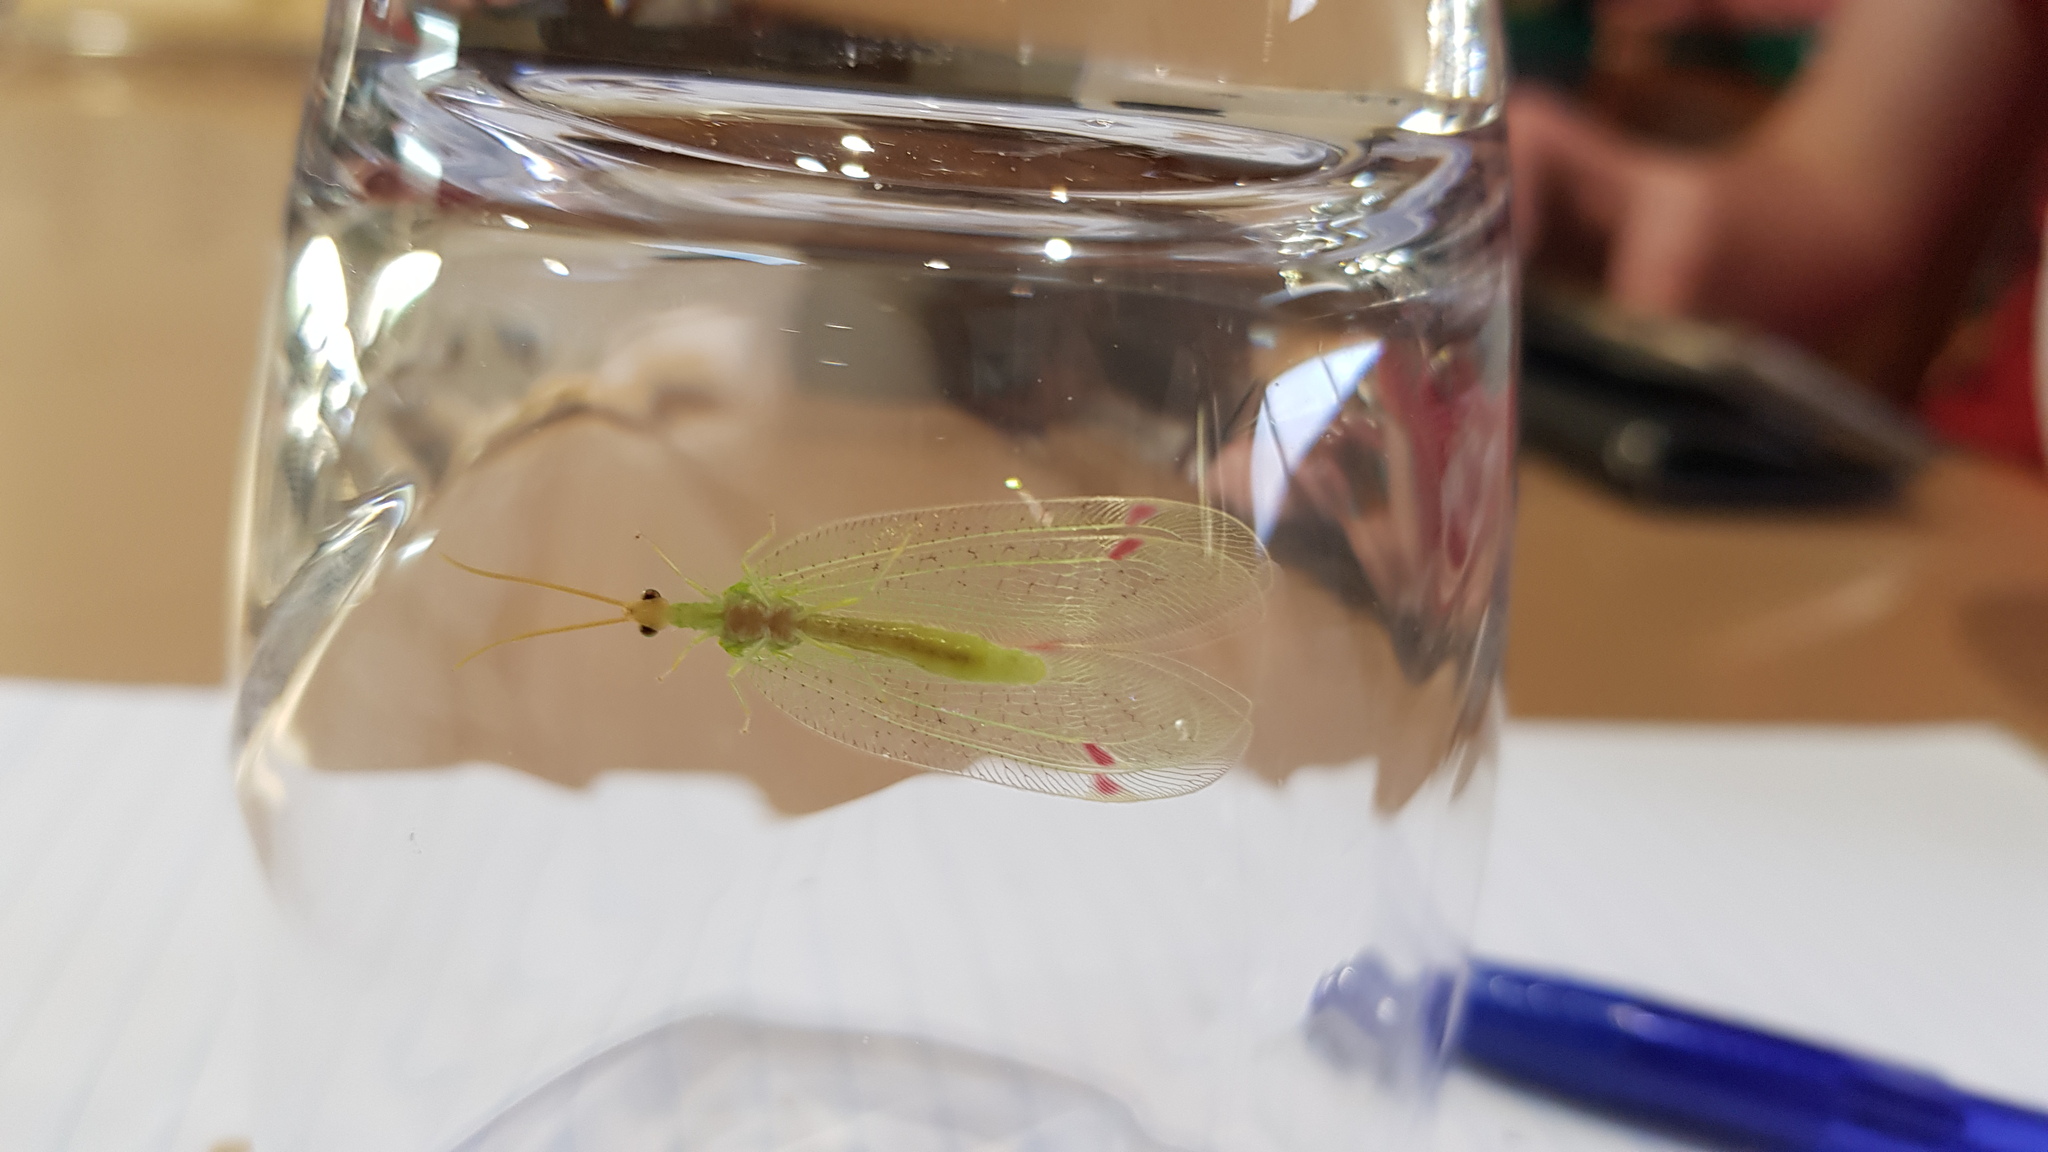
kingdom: Animalia
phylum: Arthropoda
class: Insecta
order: Neuroptera
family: Nymphidae
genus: Norfolius
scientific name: Norfolius howensis
